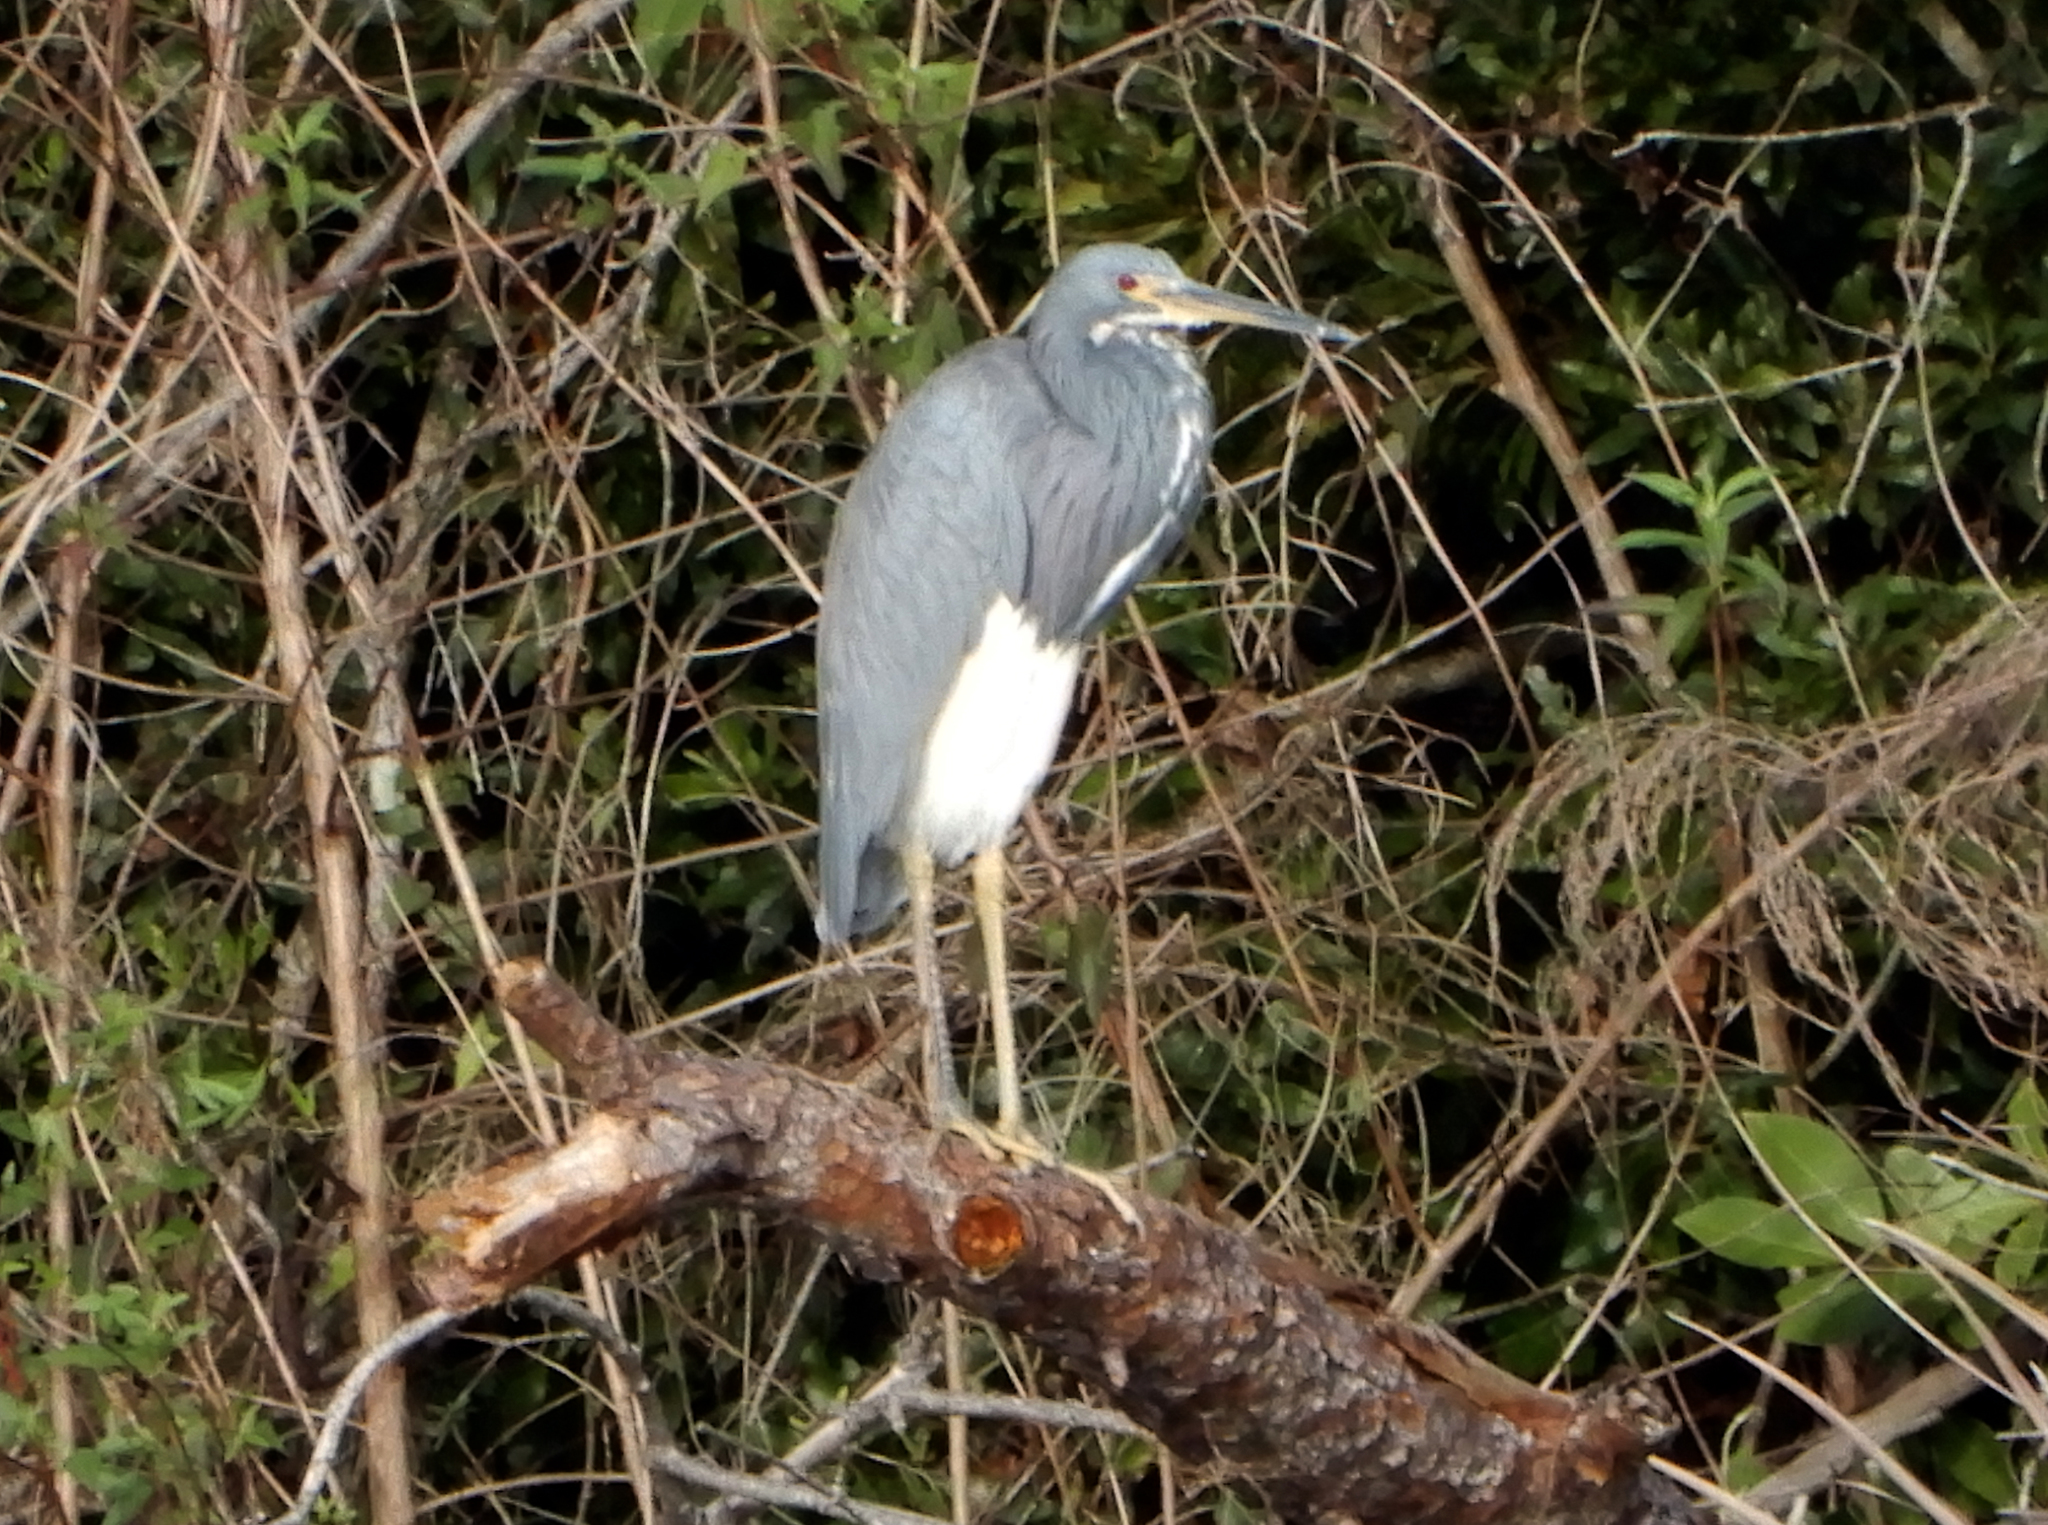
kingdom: Animalia
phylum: Chordata
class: Aves
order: Pelecaniformes
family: Ardeidae
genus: Egretta
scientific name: Egretta tricolor
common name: Tricolored heron
